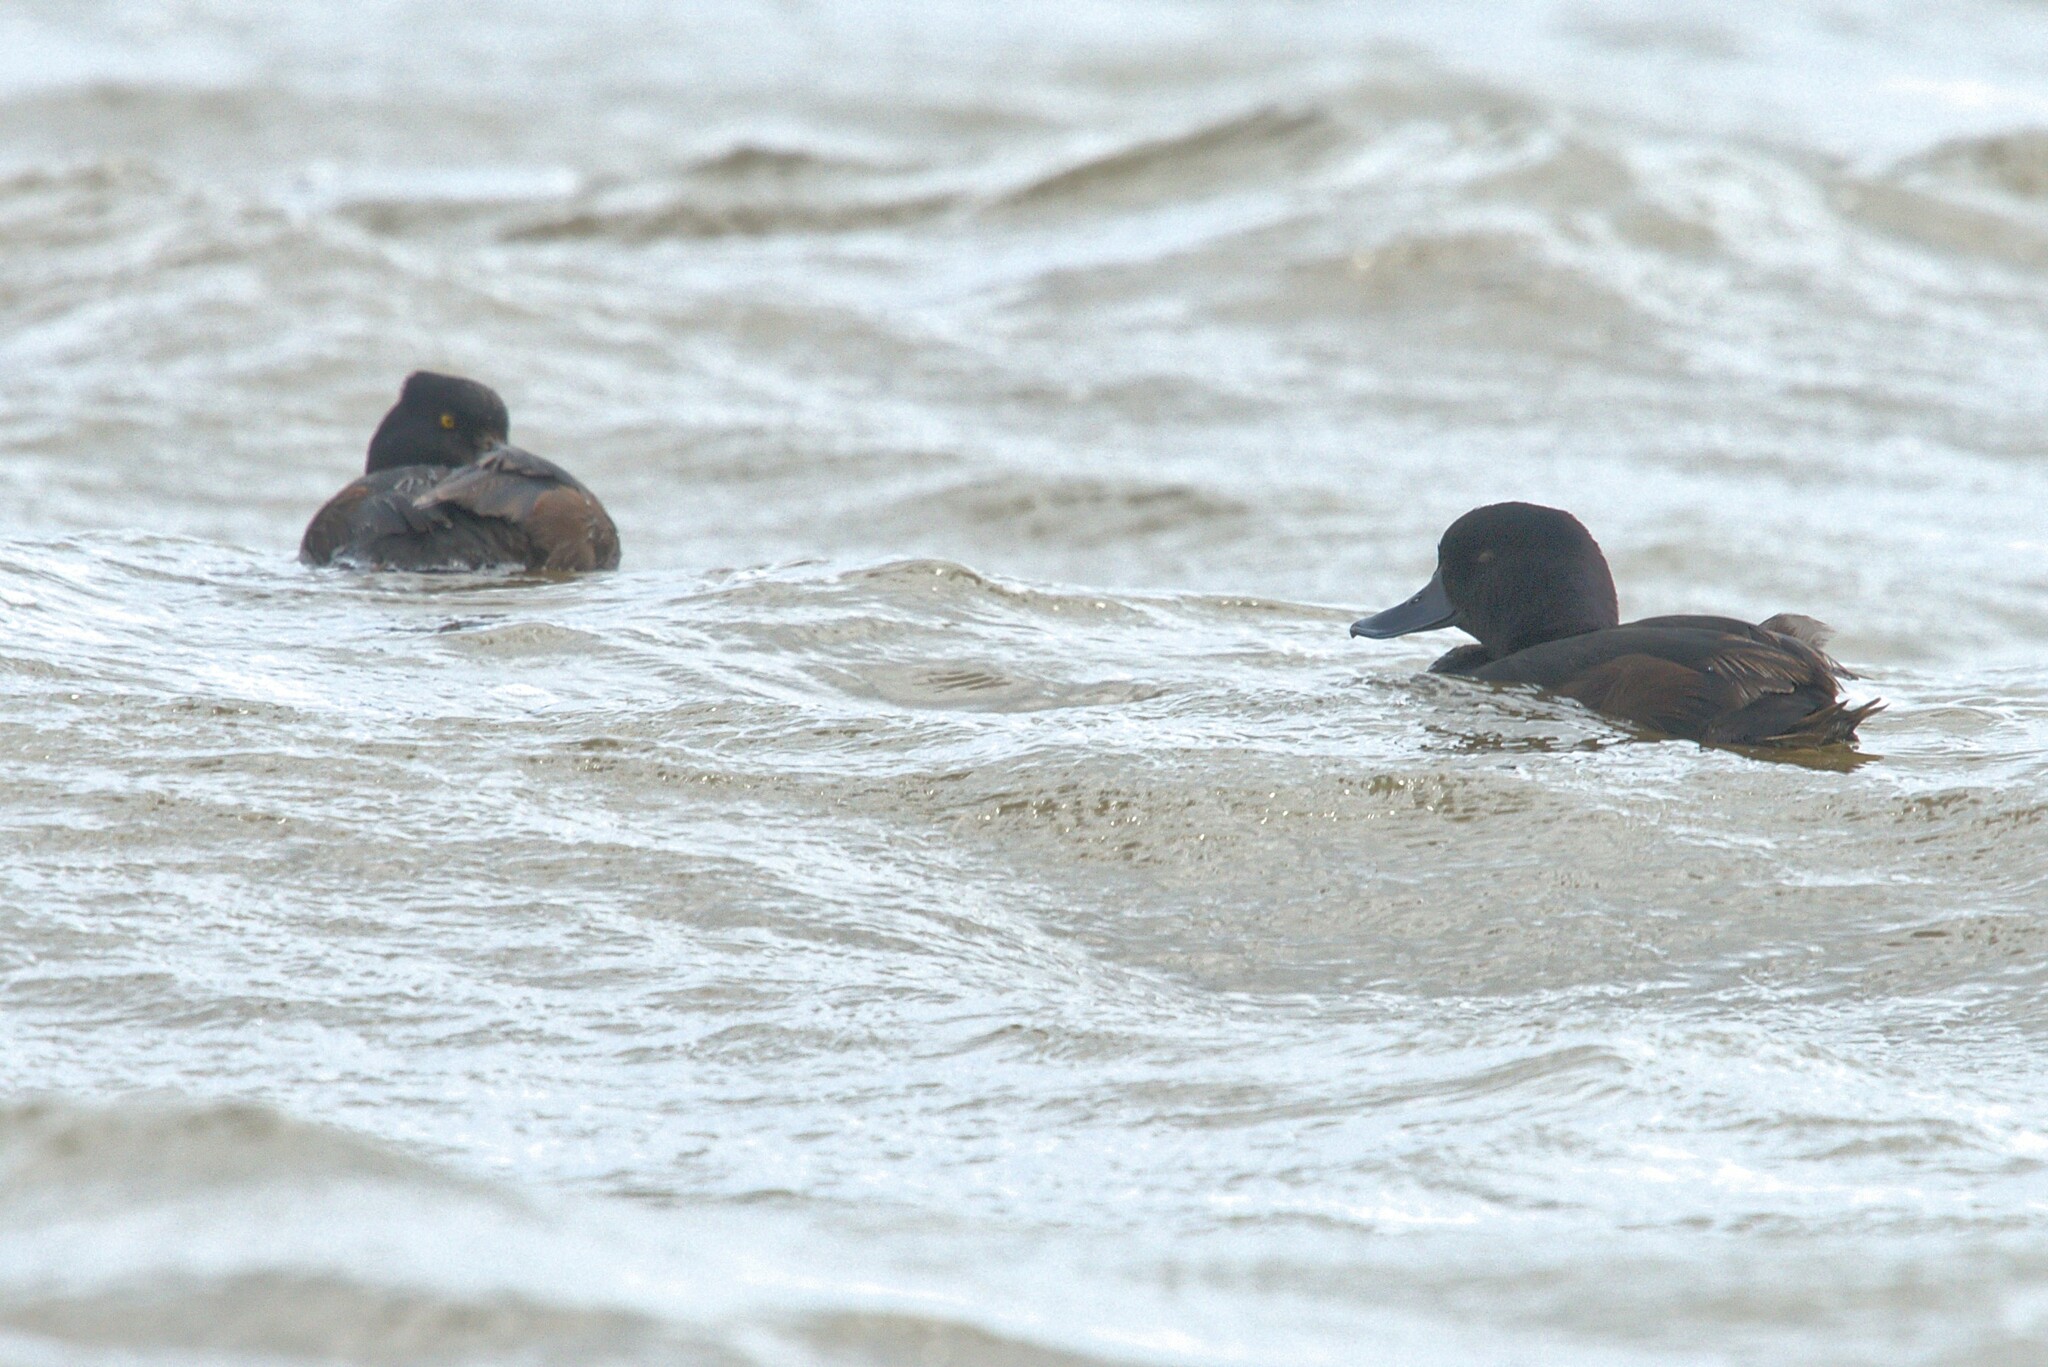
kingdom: Animalia
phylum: Chordata
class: Aves
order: Anseriformes
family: Anatidae
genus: Aythya
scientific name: Aythya novaeseelandiae
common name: New zealand scaup
